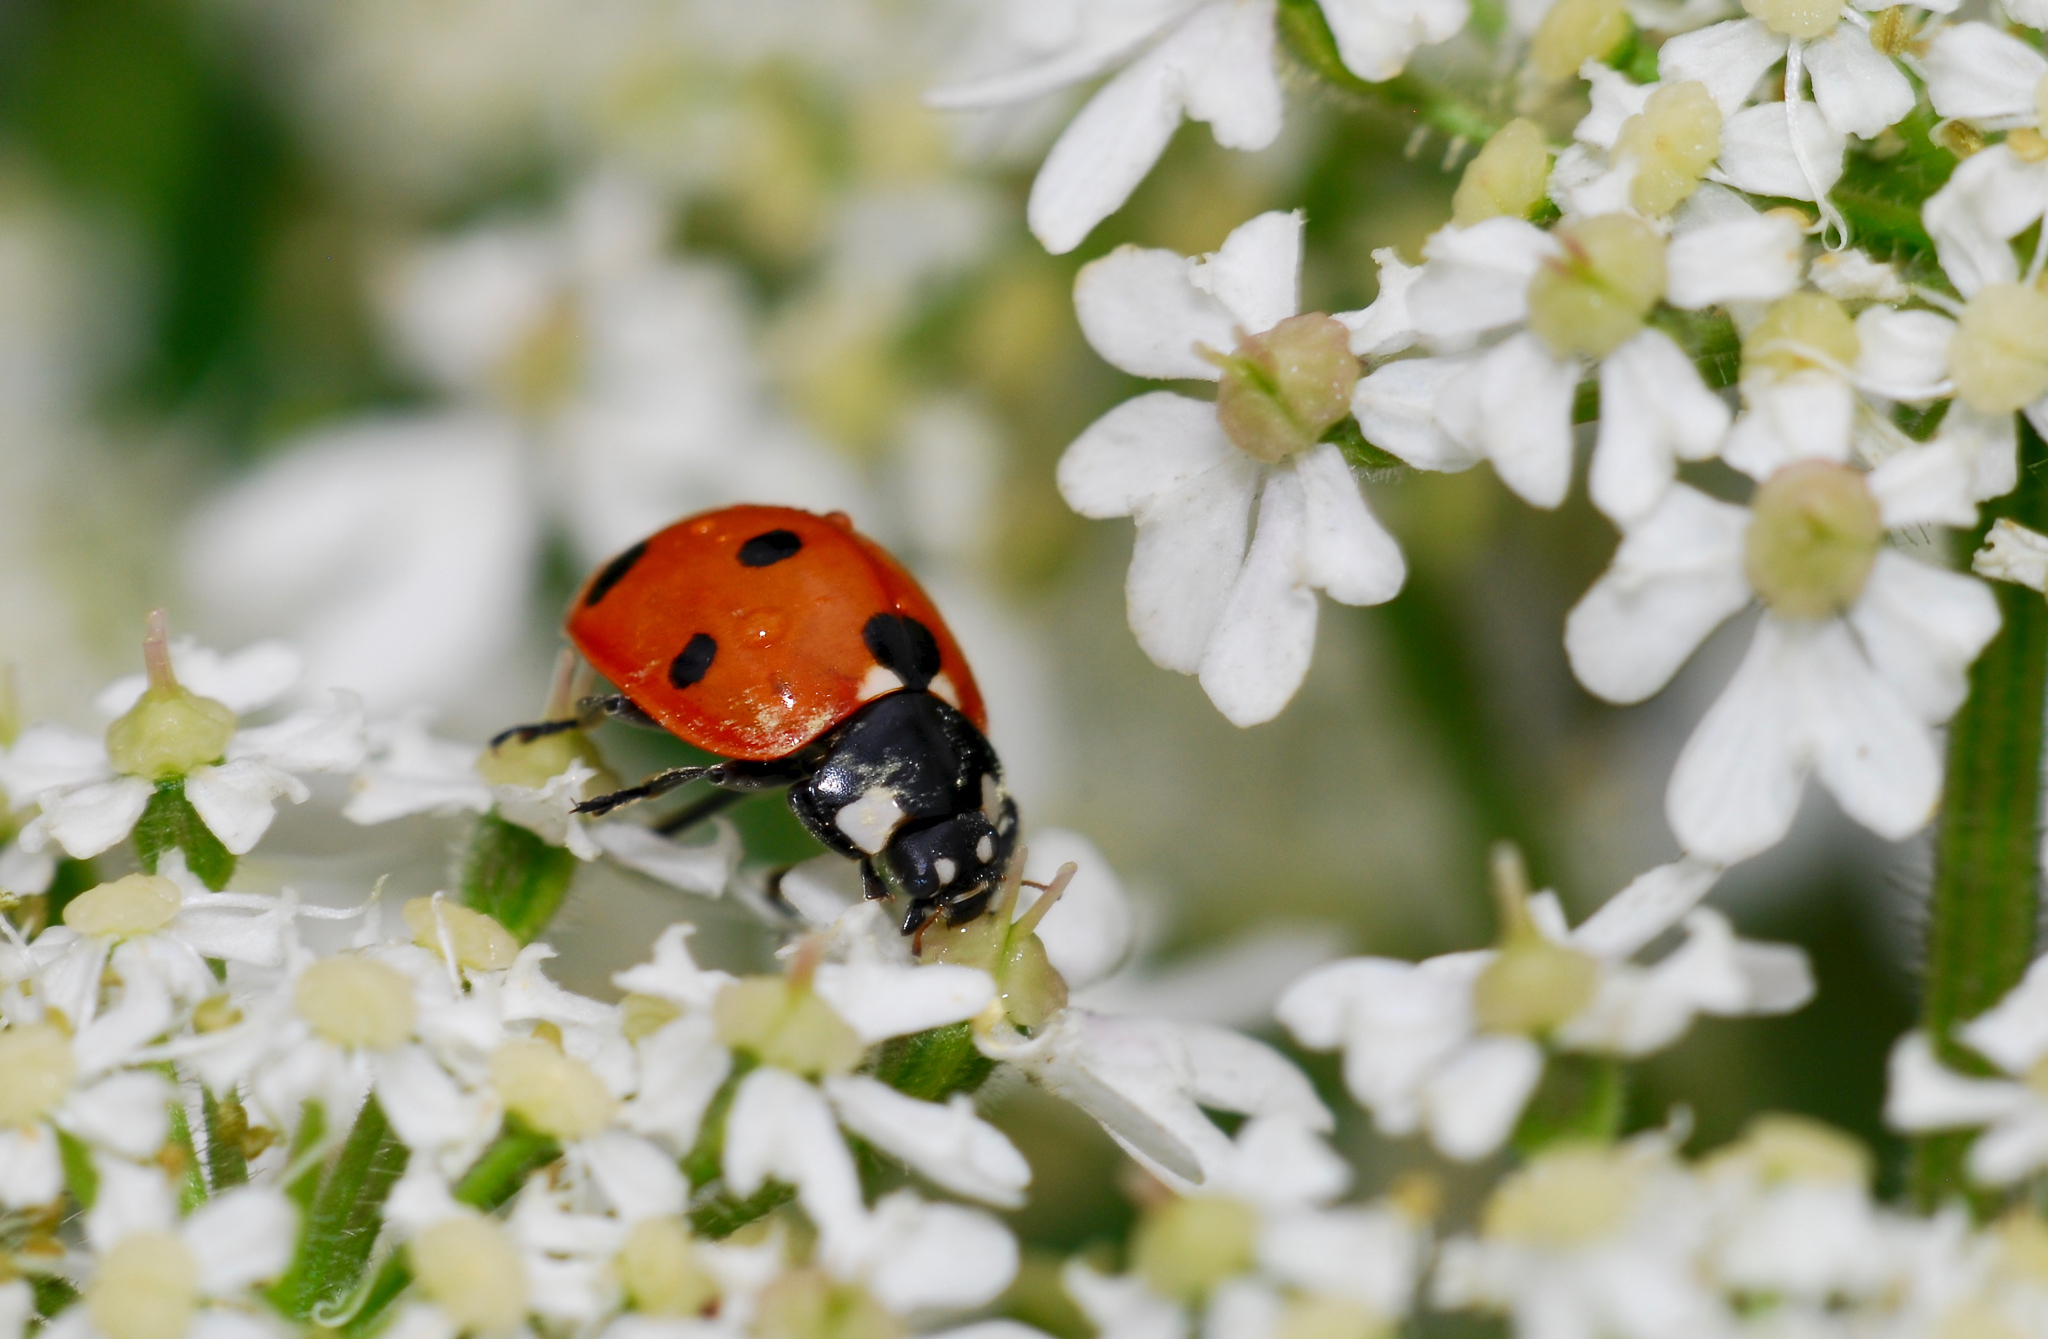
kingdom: Animalia
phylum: Arthropoda
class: Insecta
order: Coleoptera
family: Coccinellidae
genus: Coccinella
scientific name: Coccinella septempunctata
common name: Sevenspotted lady beetle
